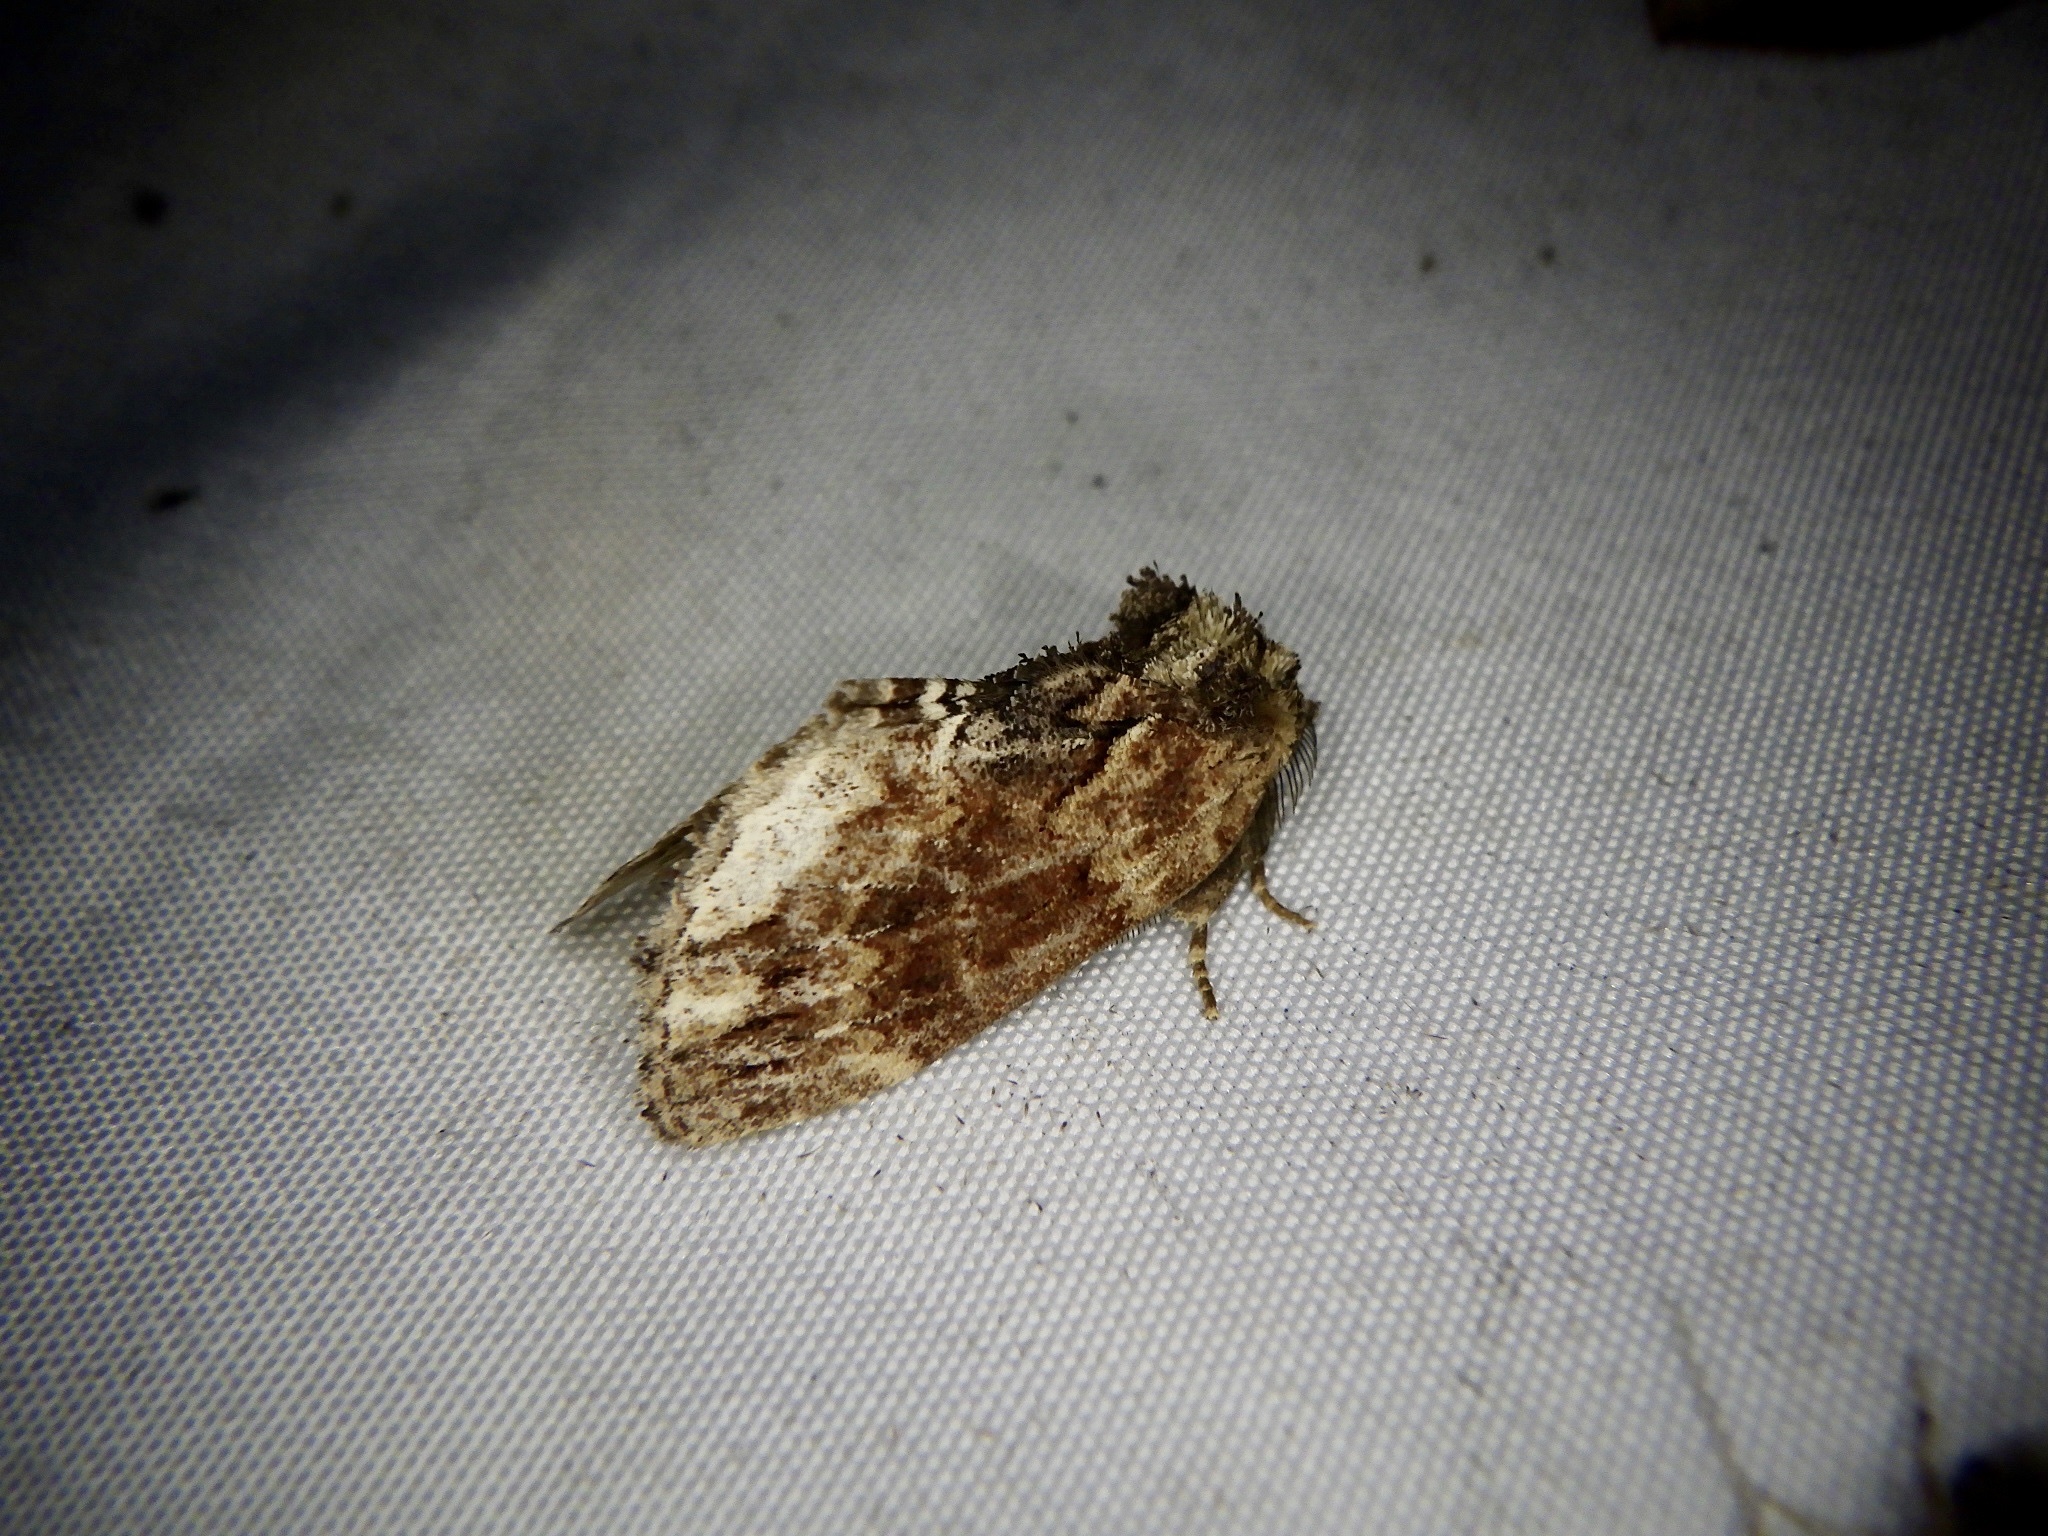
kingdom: Animalia
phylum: Arthropoda
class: Insecta
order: Lepidoptera
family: Notodontidae
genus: Lophontosia
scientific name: Lophontosia
